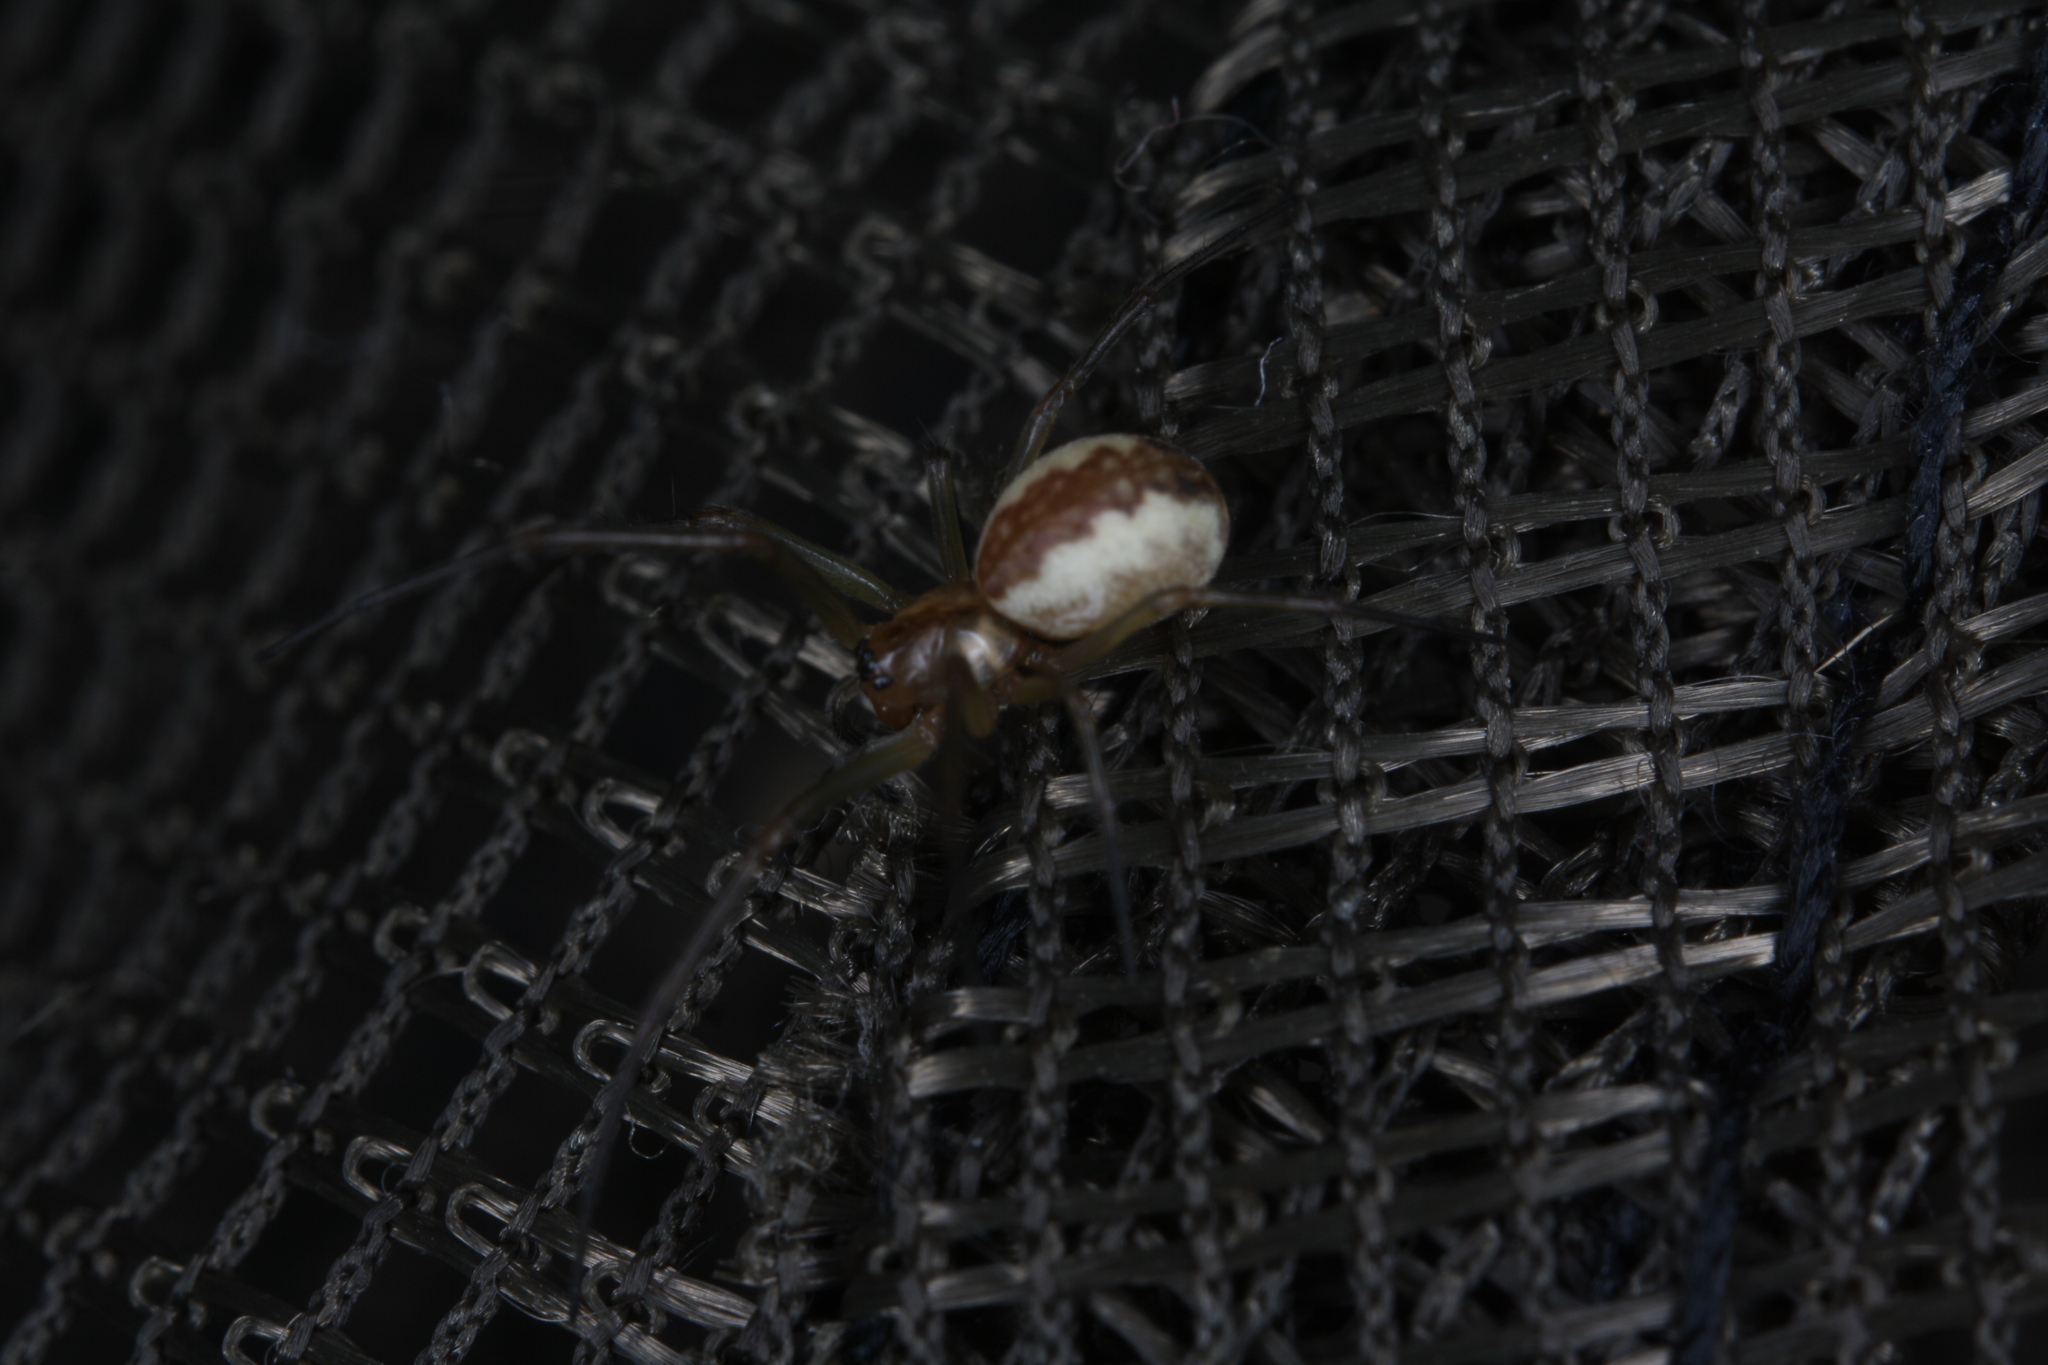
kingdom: Animalia
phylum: Arthropoda
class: Arachnida
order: Araneae
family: Linyphiidae
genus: Neriene
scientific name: Neriene peltata
